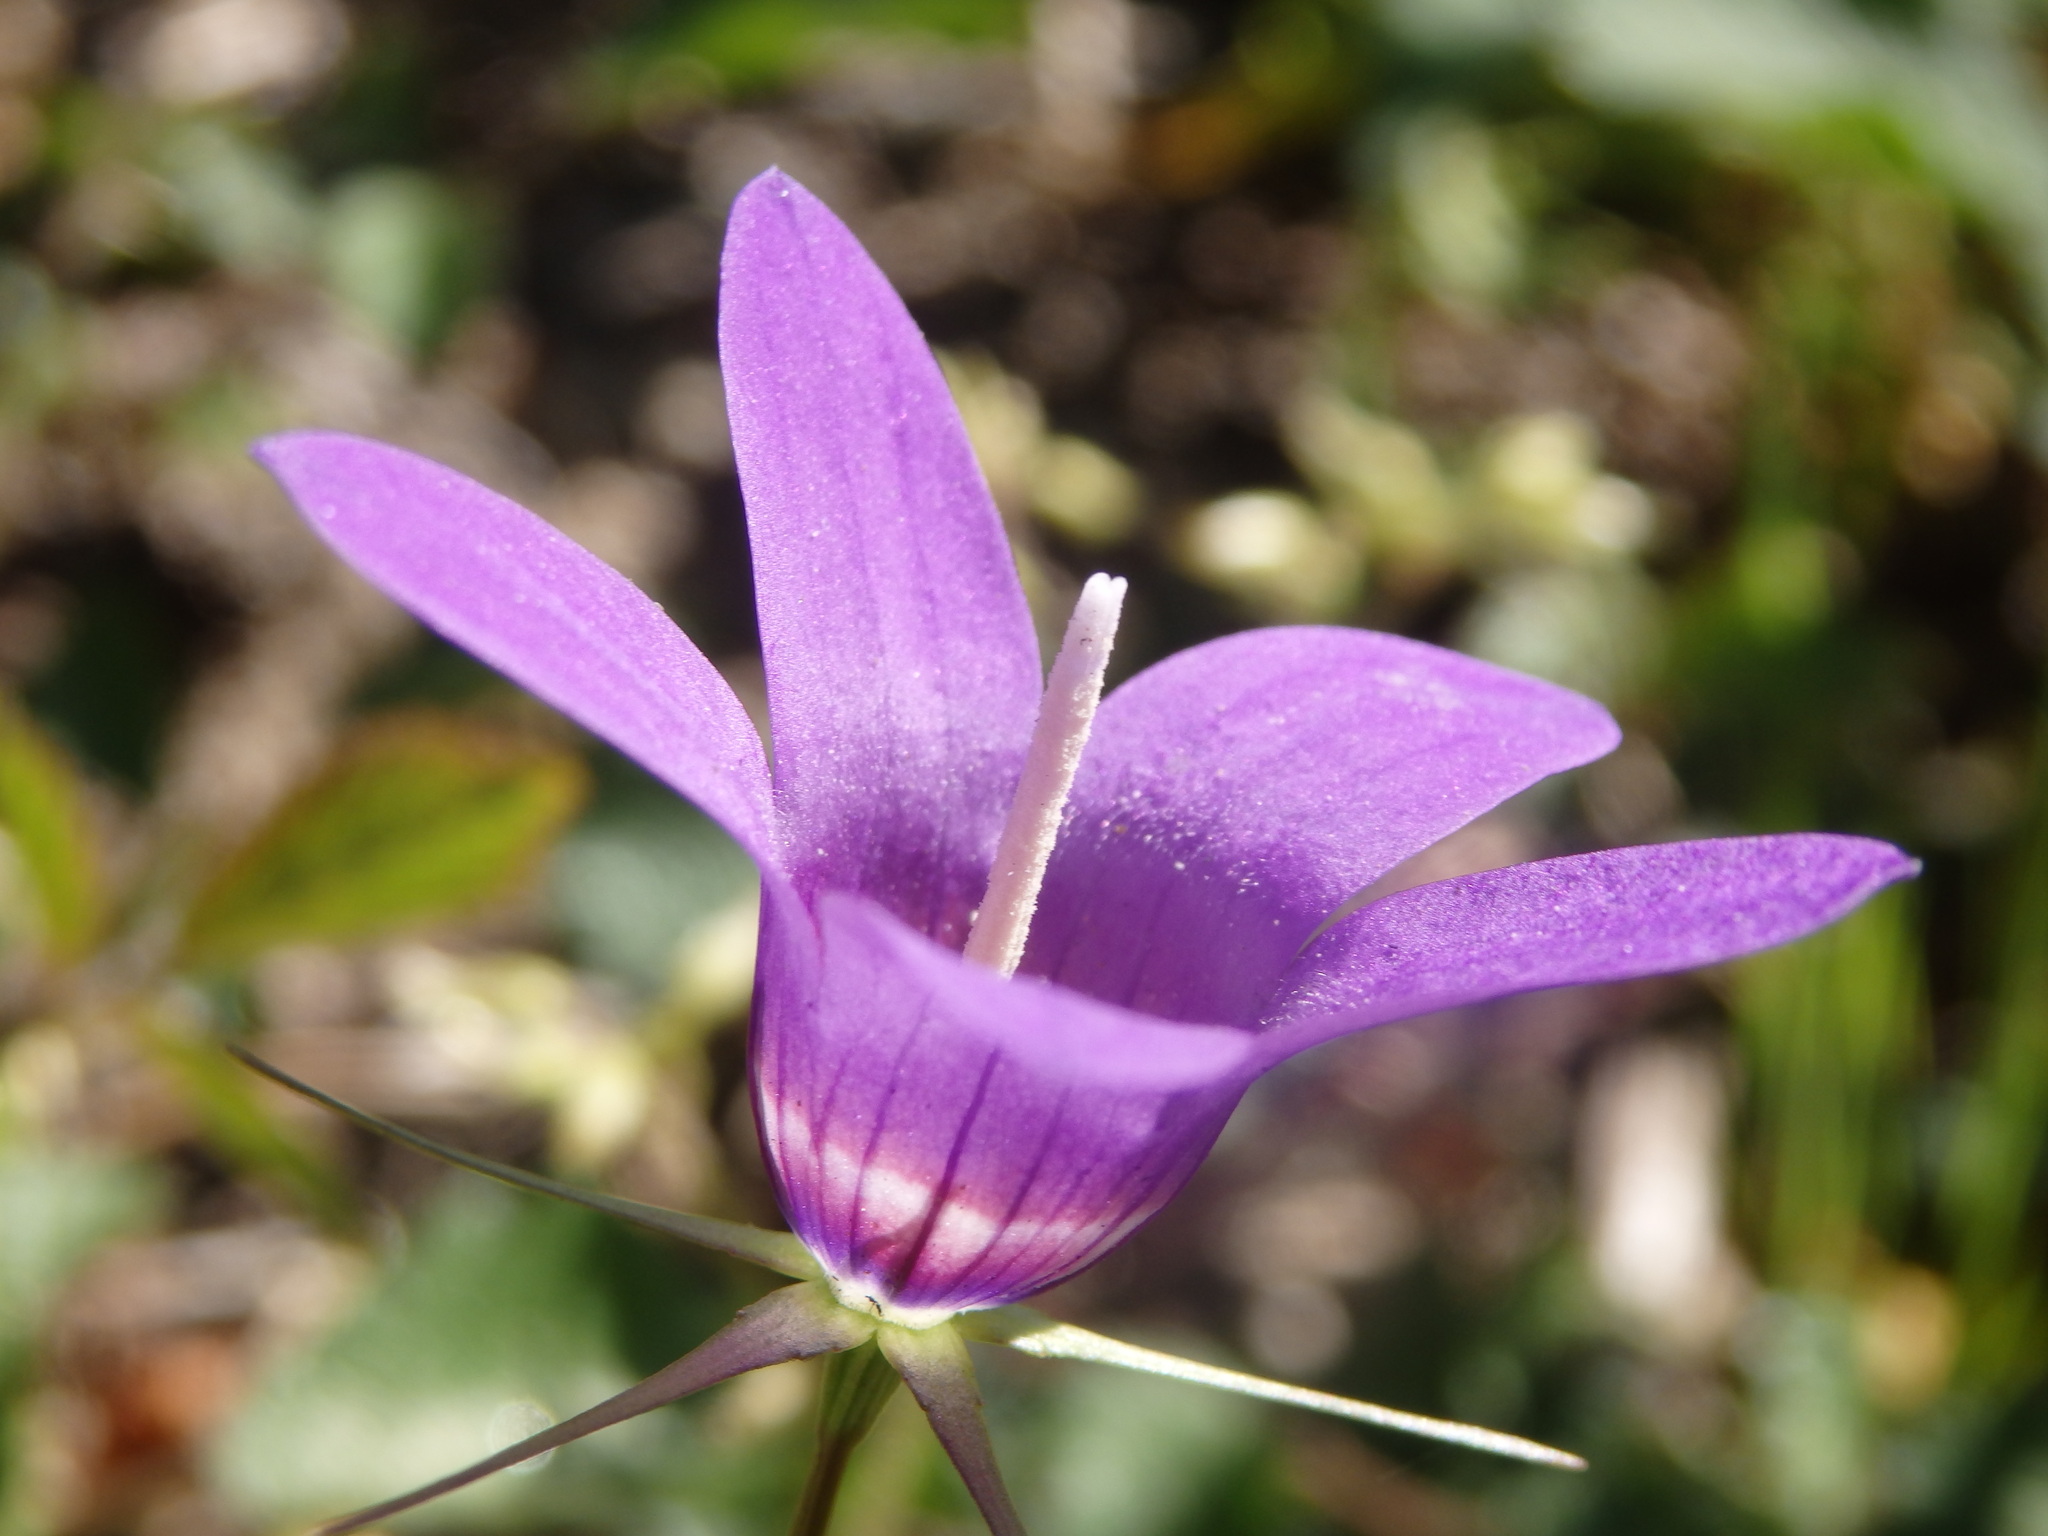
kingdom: Plantae
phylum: Tracheophyta
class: Magnoliopsida
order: Asterales
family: Campanulaceae
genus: Campanula
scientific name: Campanula lusitanica
